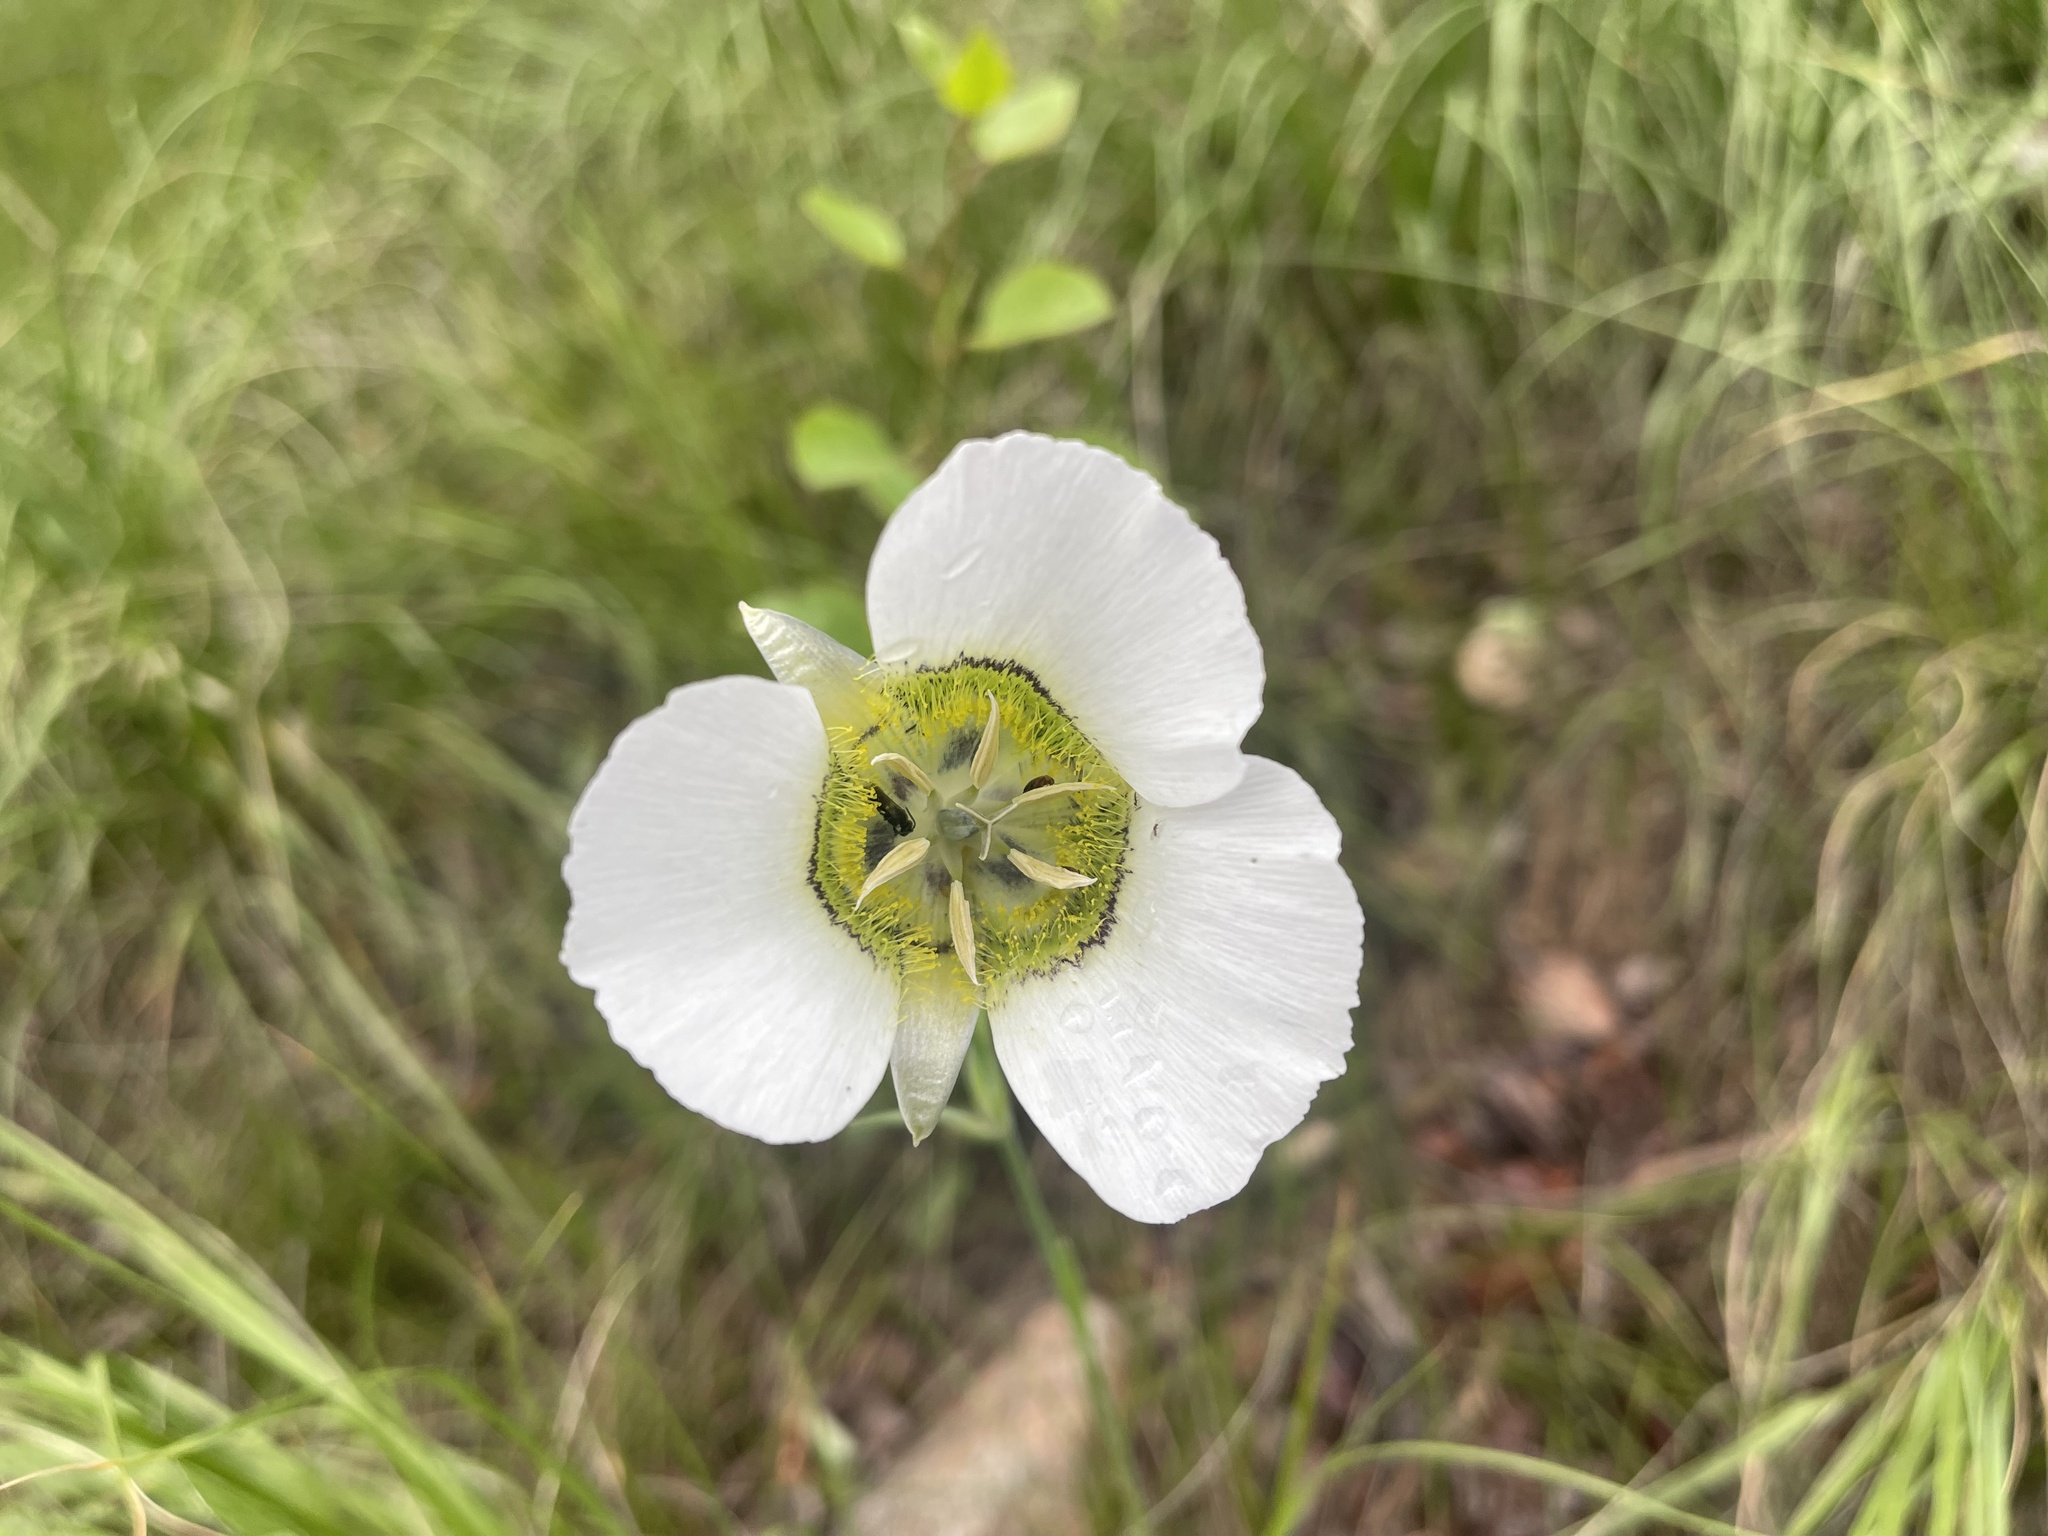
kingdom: Plantae
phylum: Tracheophyta
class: Liliopsida
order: Liliales
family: Liliaceae
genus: Calochortus
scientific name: Calochortus gunnisonii
